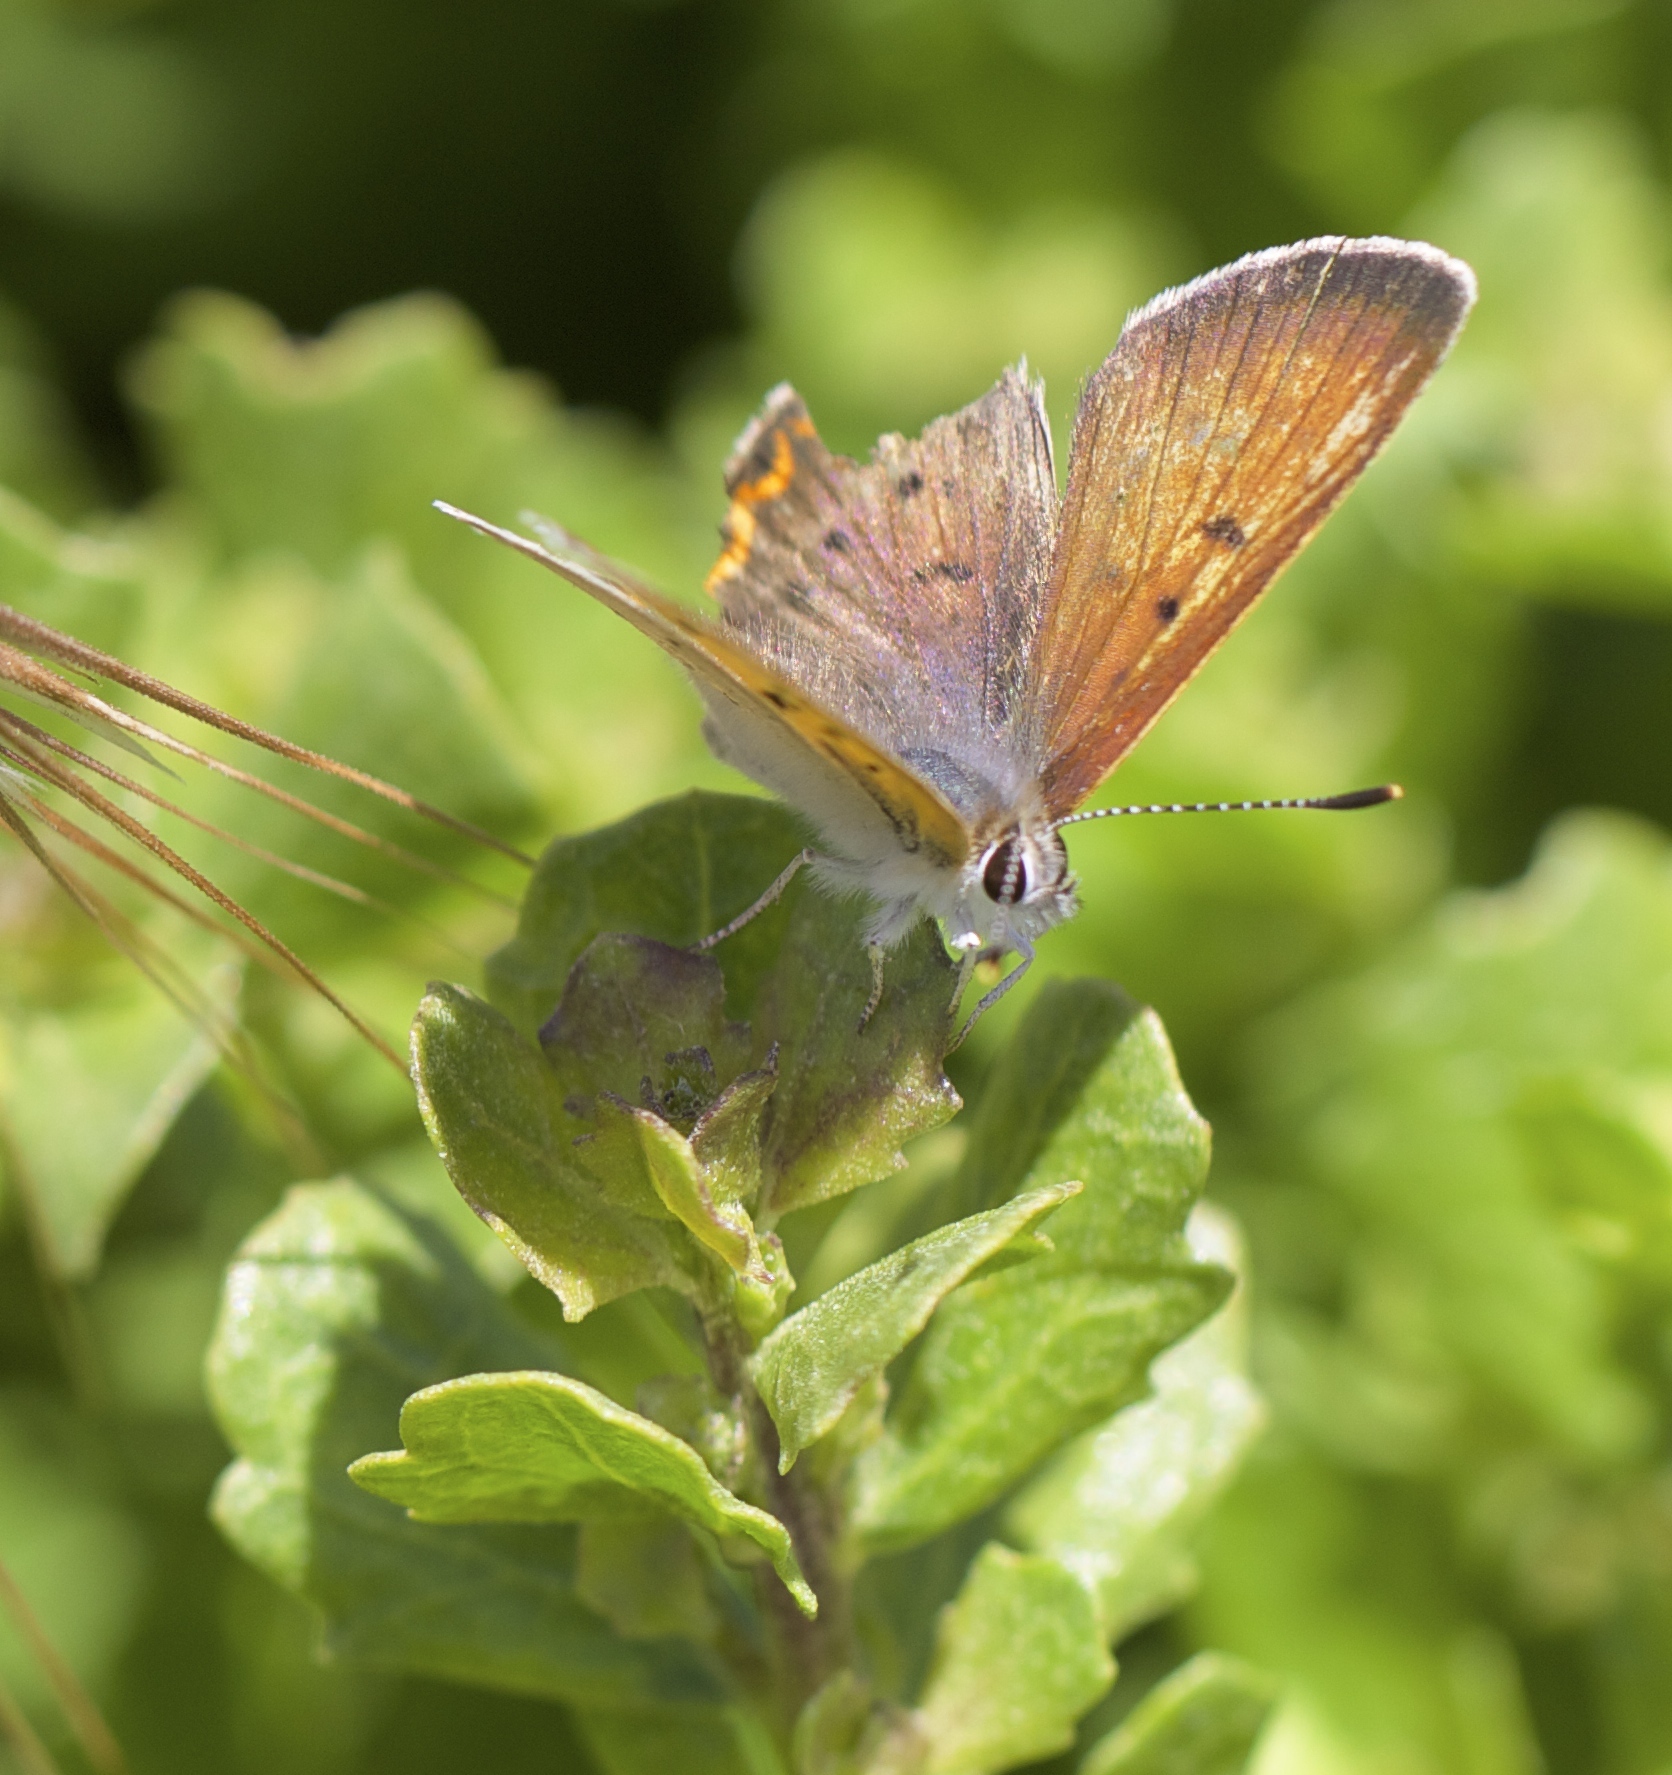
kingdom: Animalia
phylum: Arthropoda
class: Insecta
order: Lepidoptera
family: Lycaenidae
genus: Tharsalea
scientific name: Tharsalea helloides
